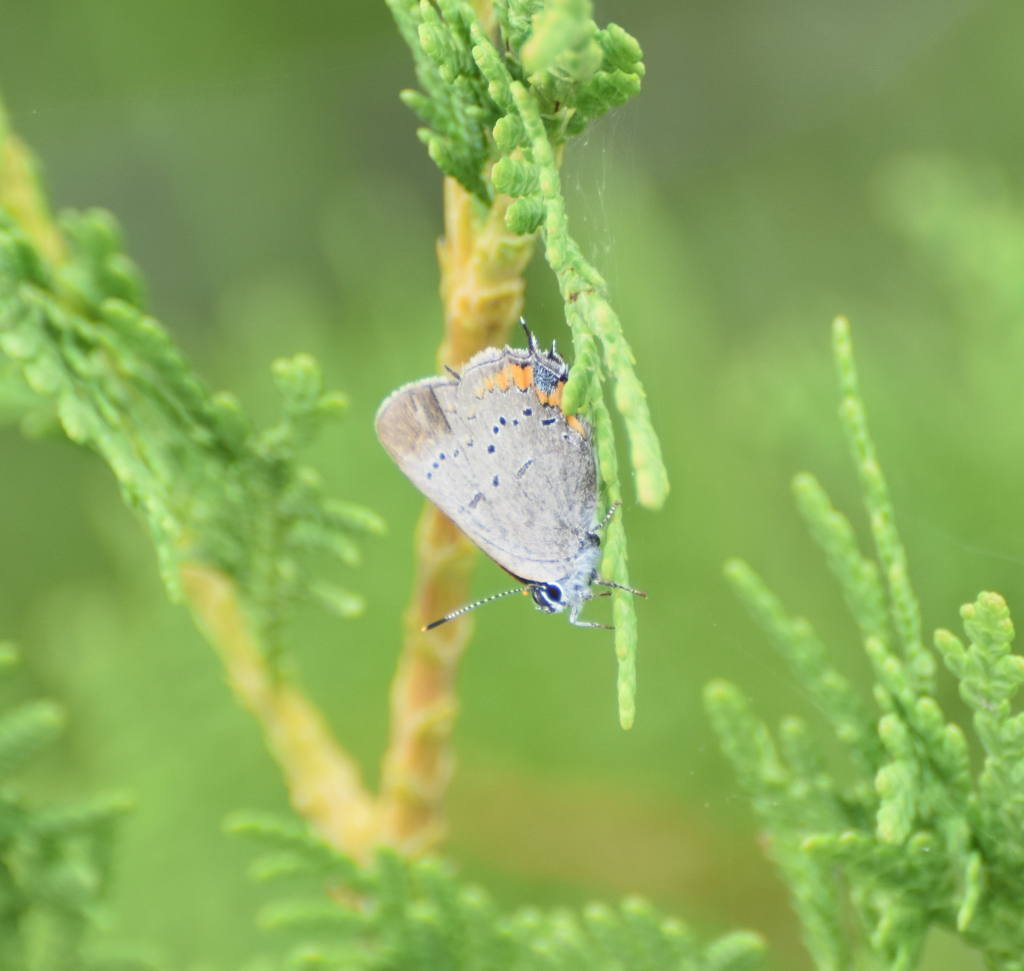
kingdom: Animalia
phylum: Arthropoda
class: Insecta
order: Lepidoptera
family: Lycaenidae
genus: Strymon
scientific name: Strymon acadica
